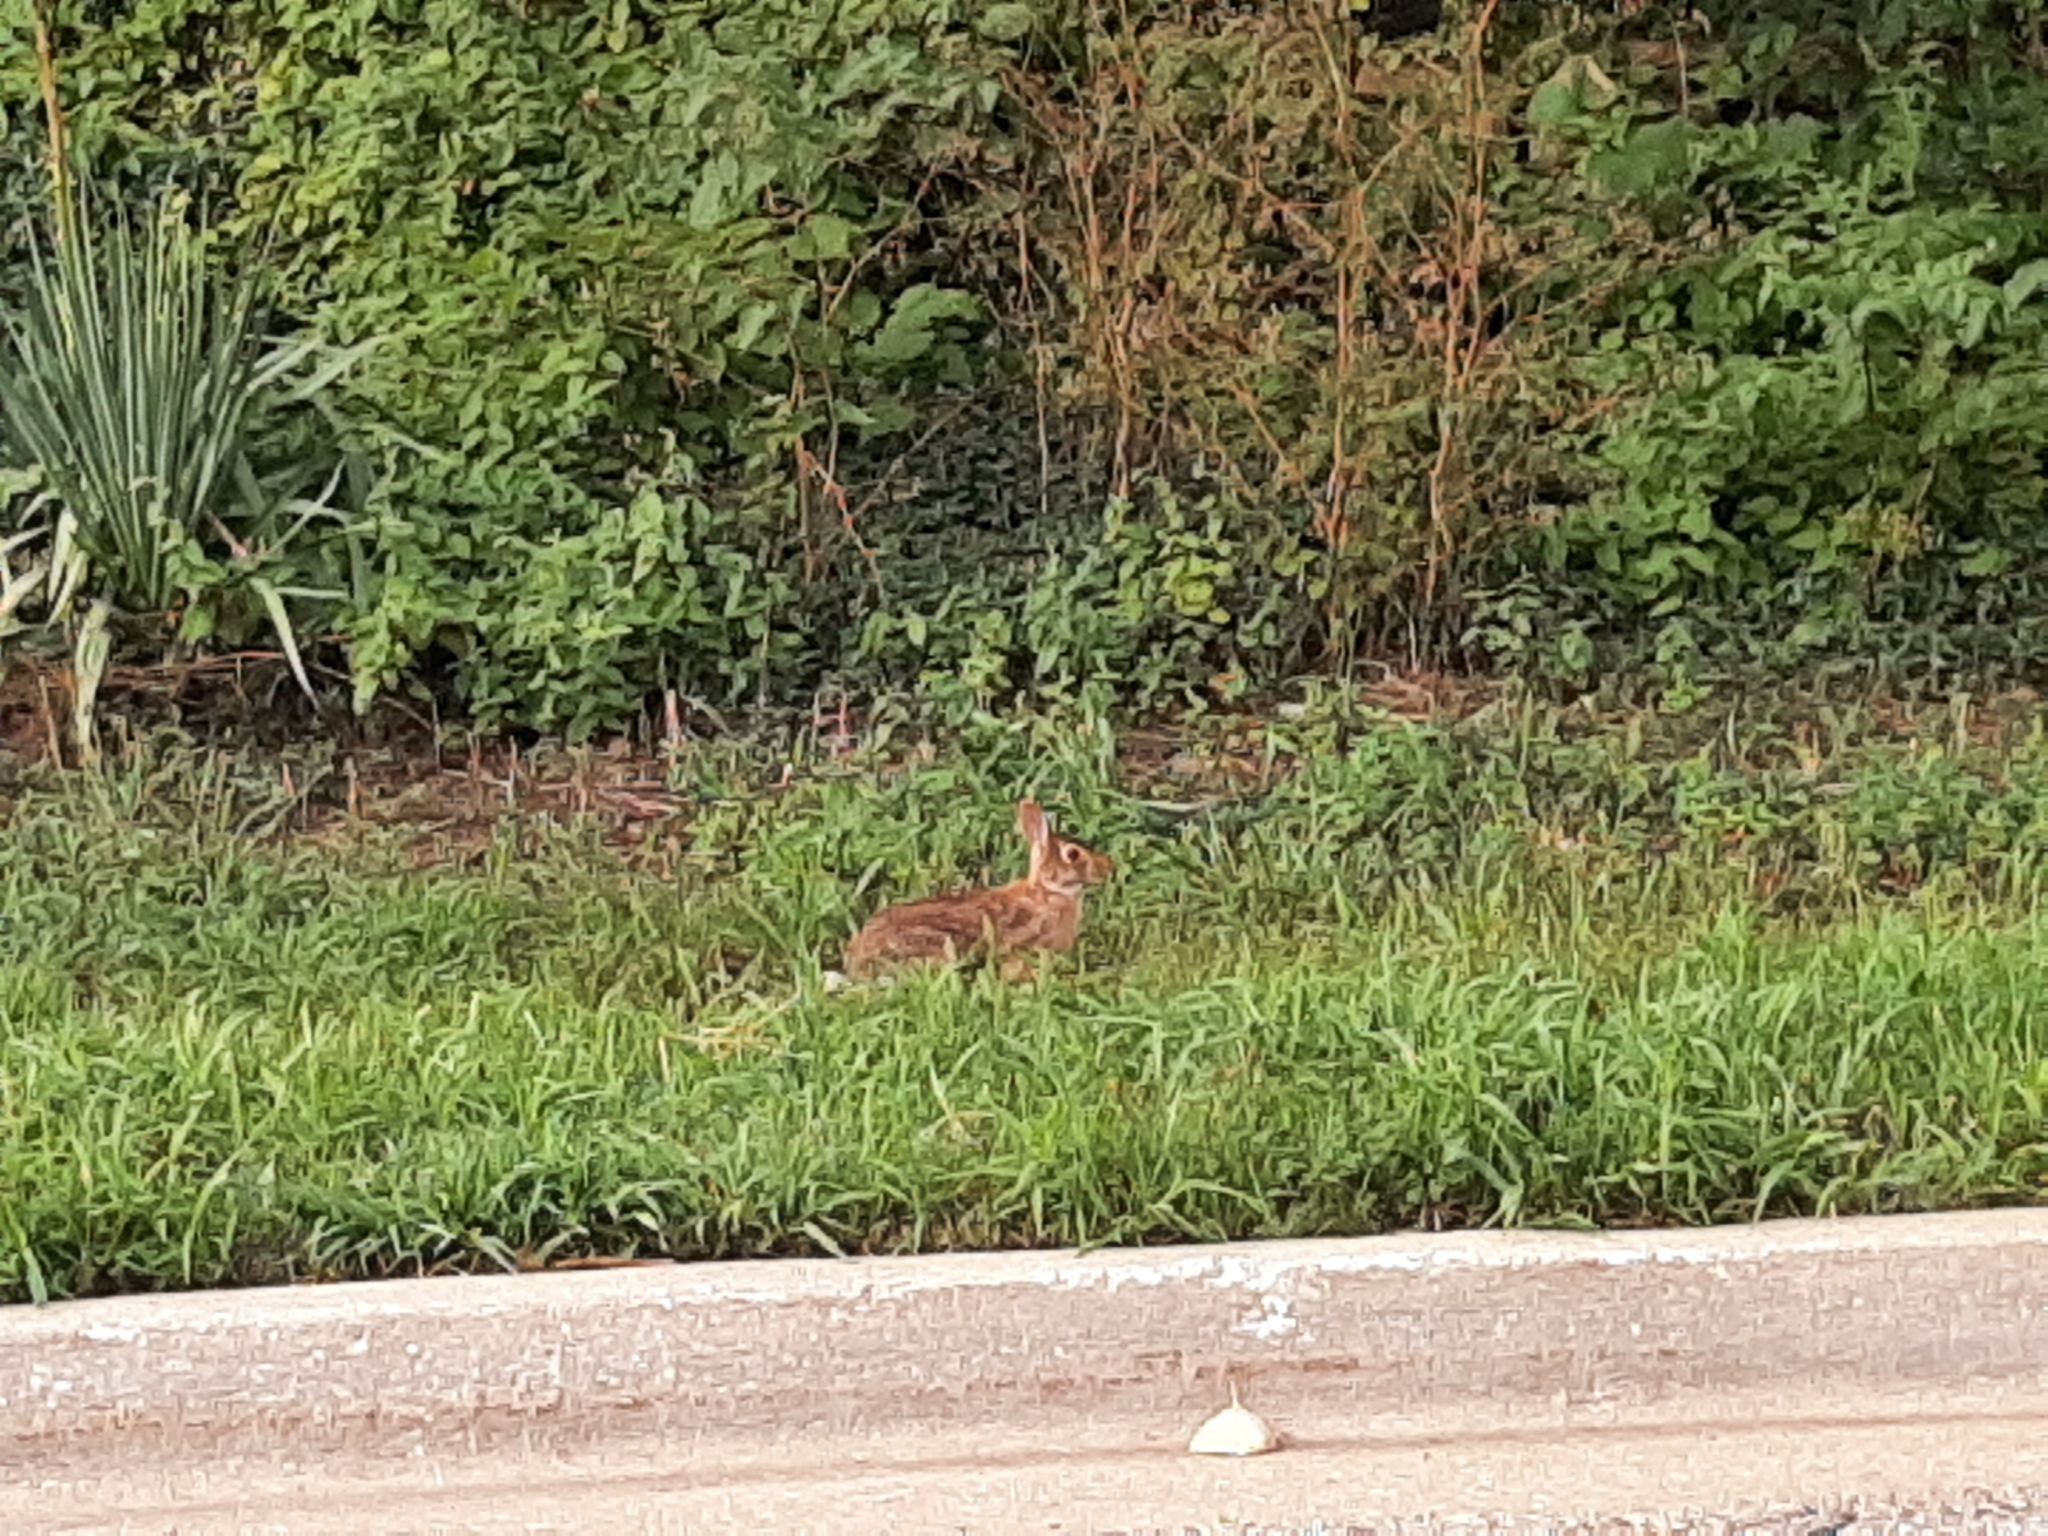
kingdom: Animalia
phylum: Chordata
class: Mammalia
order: Lagomorpha
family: Leporidae
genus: Sylvilagus
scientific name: Sylvilagus floridanus
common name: Eastern cottontail
